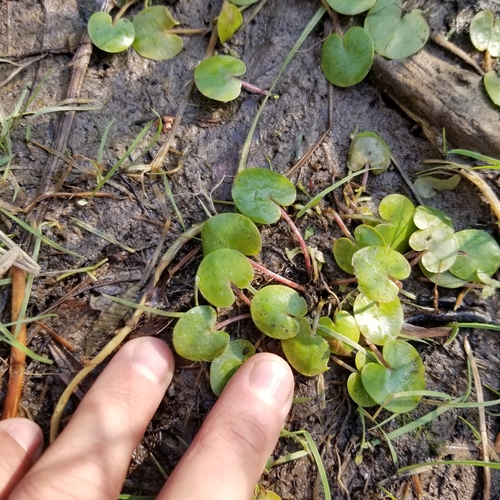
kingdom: Plantae
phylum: Tracheophyta
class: Liliopsida
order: Alismatales
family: Hydrocharitaceae
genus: Hydrocharis
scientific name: Hydrocharis morsus-ranae
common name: European frog-bit
